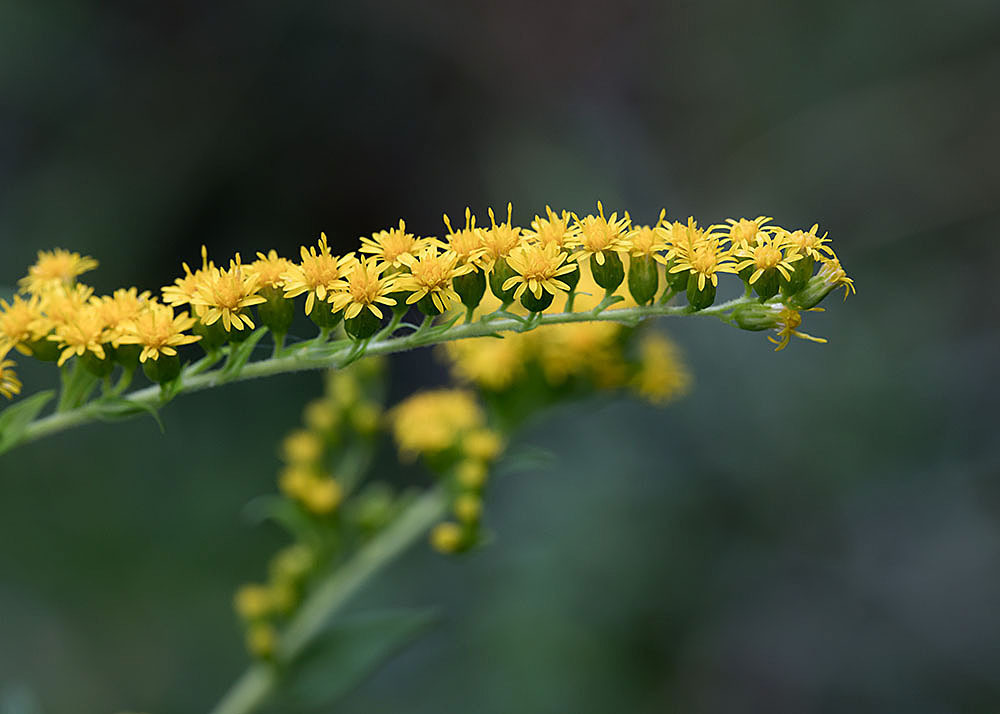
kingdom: Plantae
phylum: Tracheophyta
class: Magnoliopsida
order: Asterales
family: Asteraceae
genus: Solidago
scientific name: Solidago gigantea
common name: Giant goldenrod
